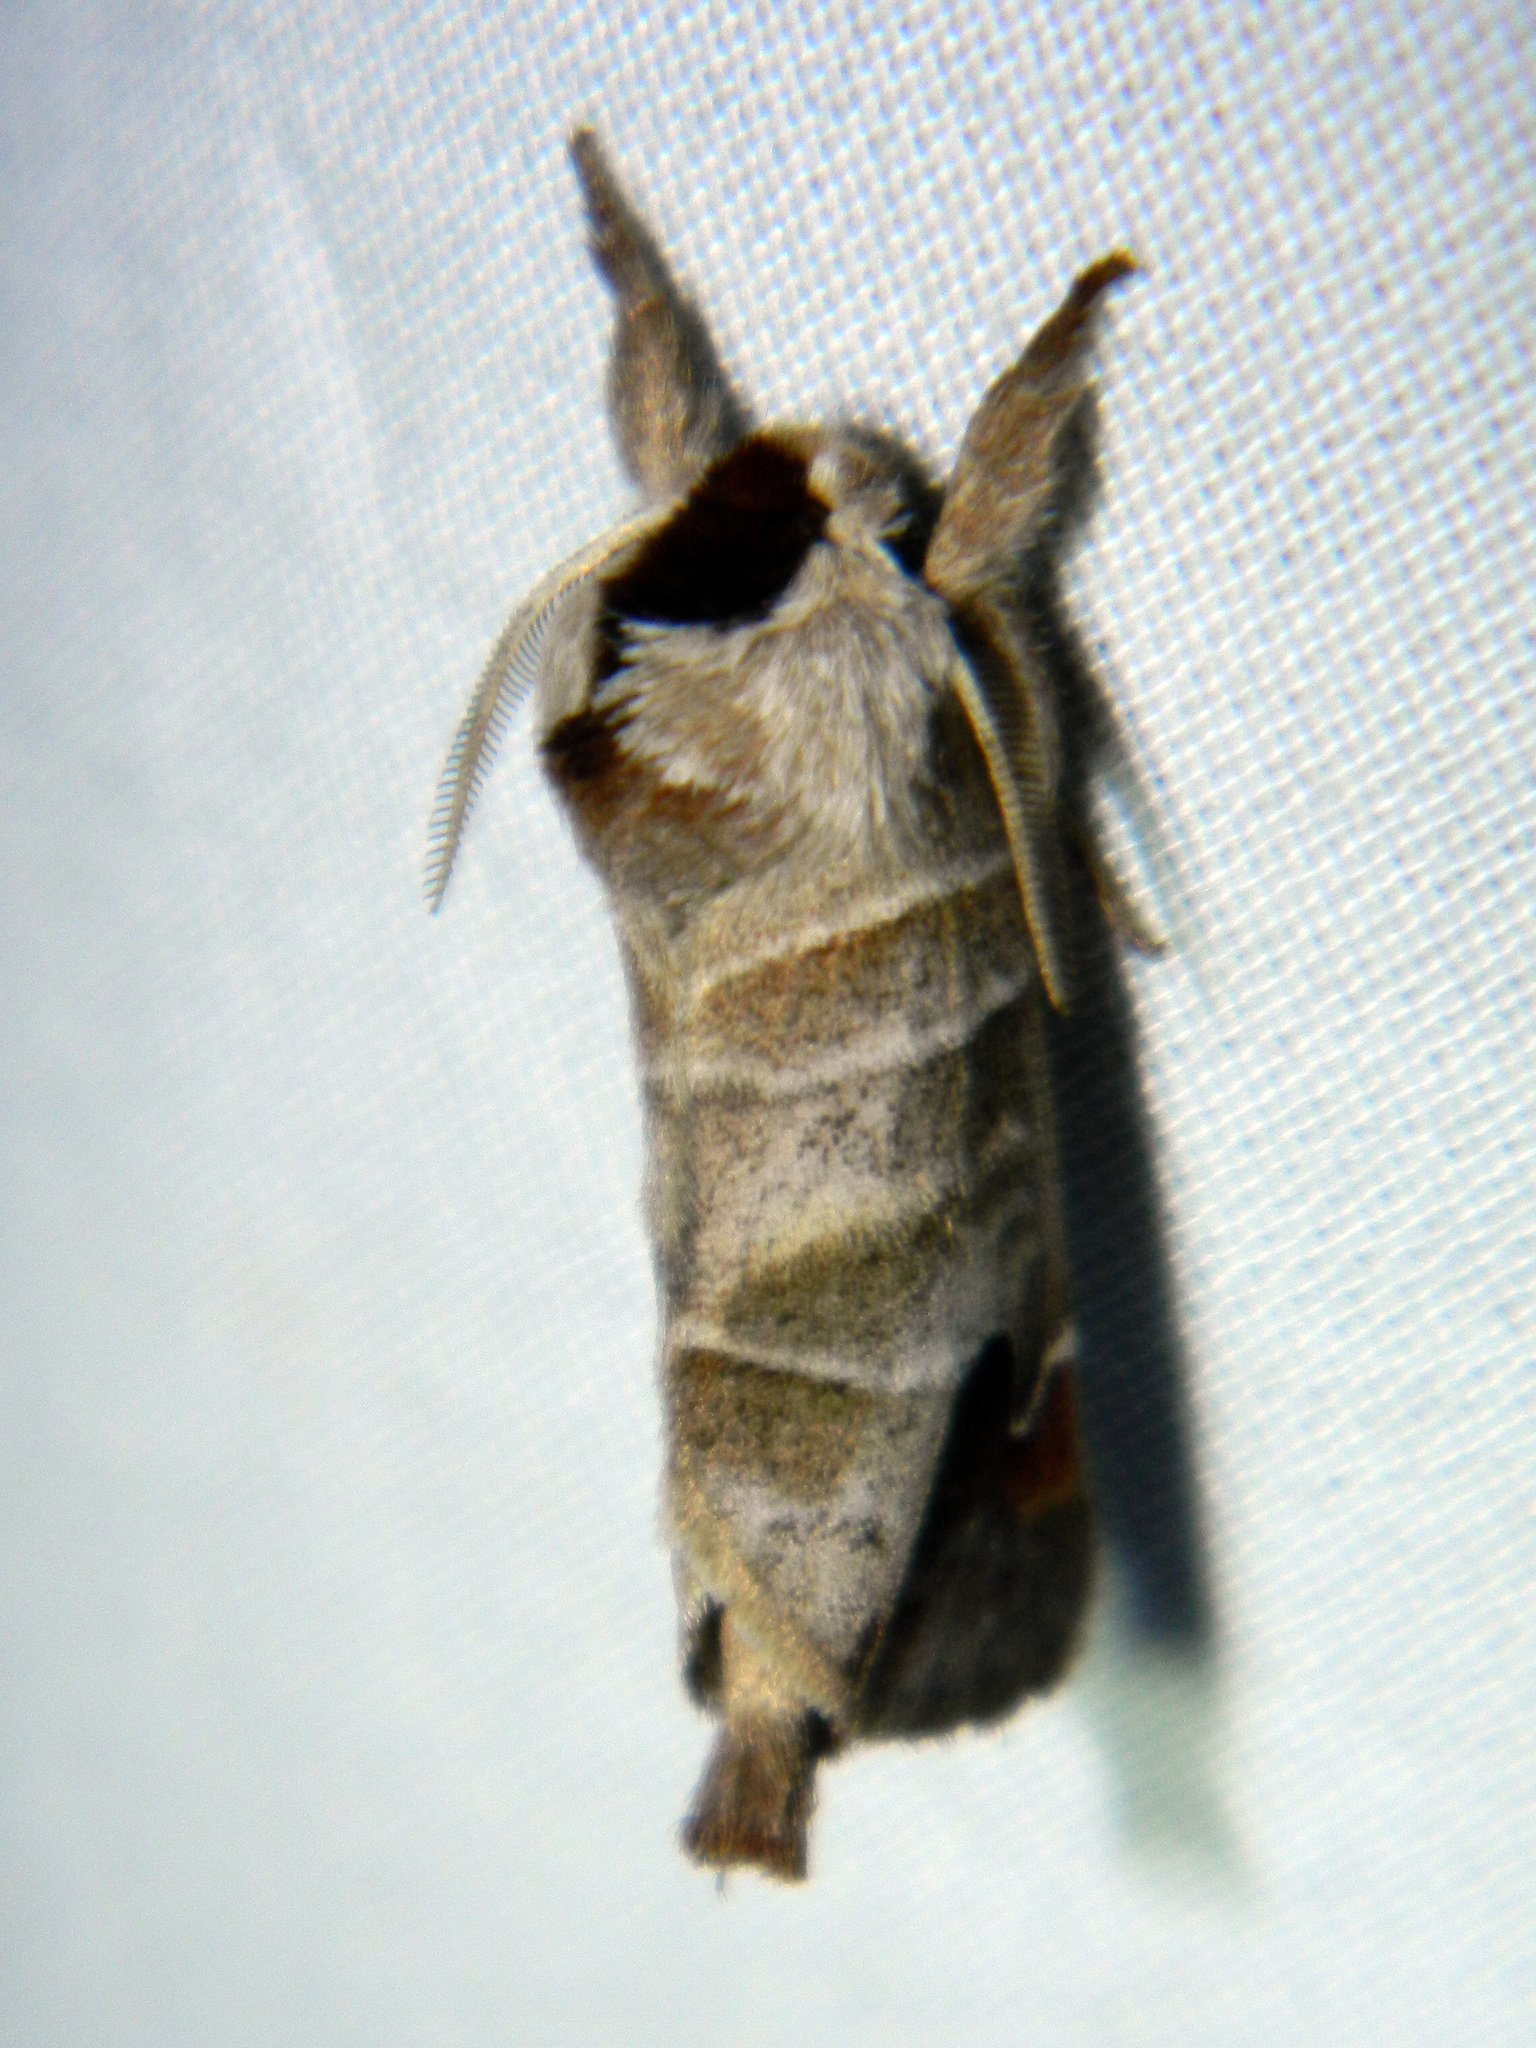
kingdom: Animalia
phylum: Arthropoda
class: Insecta
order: Lepidoptera
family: Notodontidae
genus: Clostera
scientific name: Clostera albosigma
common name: Sigmoid prominent
